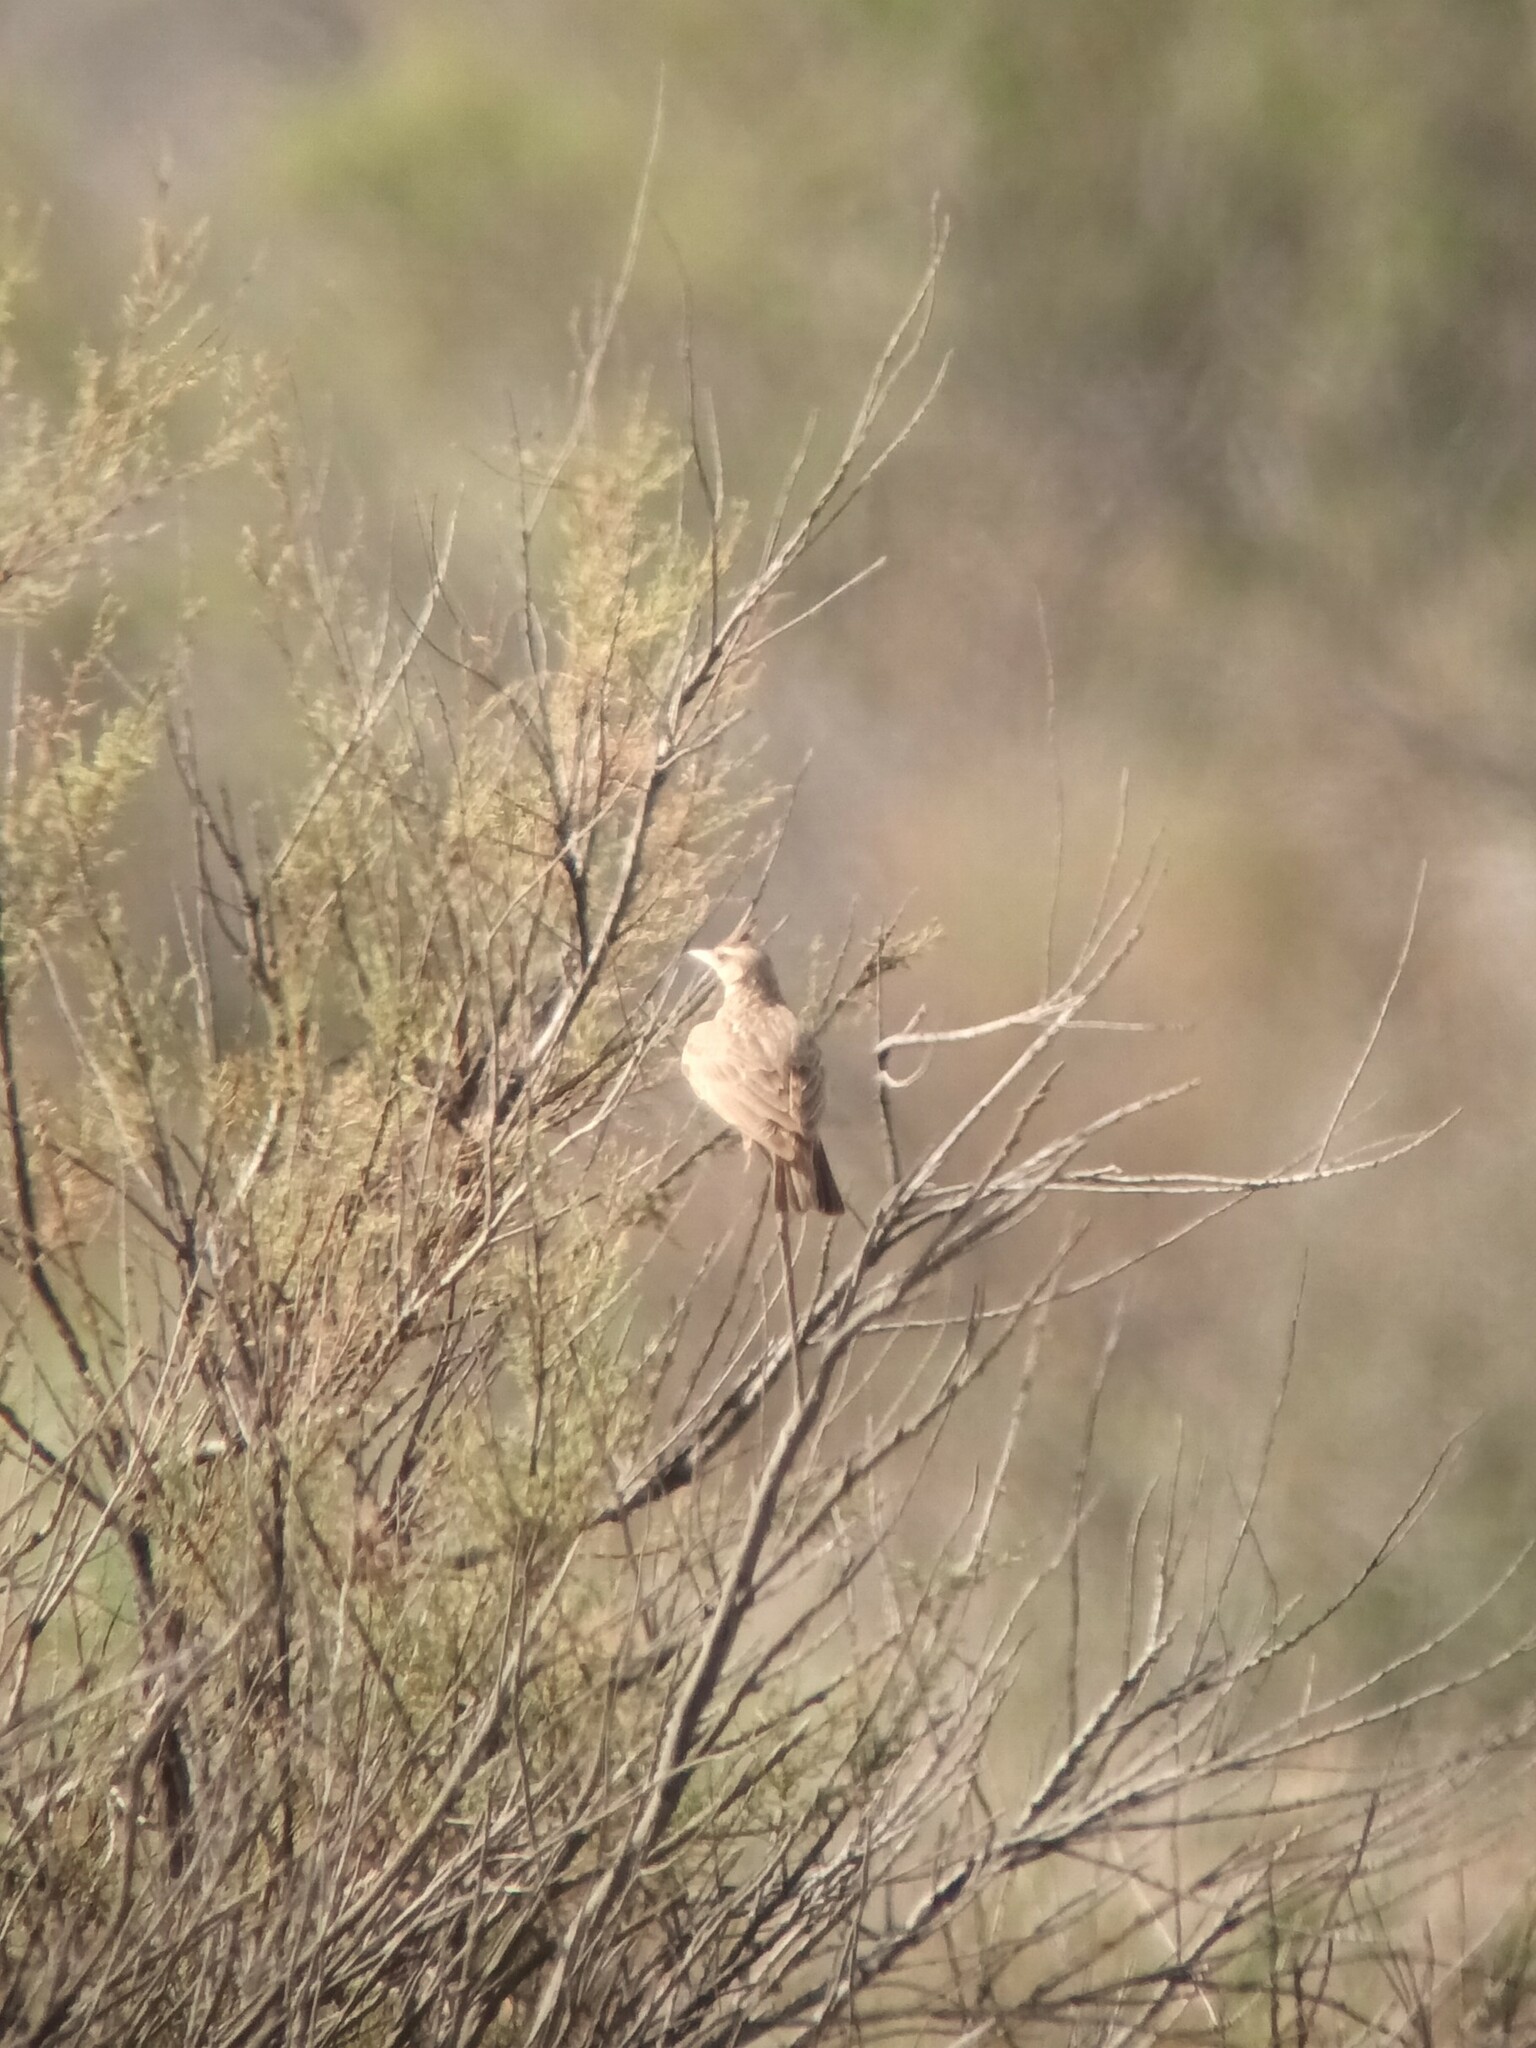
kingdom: Animalia
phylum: Chordata
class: Aves
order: Passeriformes
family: Alaudidae
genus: Galerida
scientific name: Galerida cristata
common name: Crested lark
